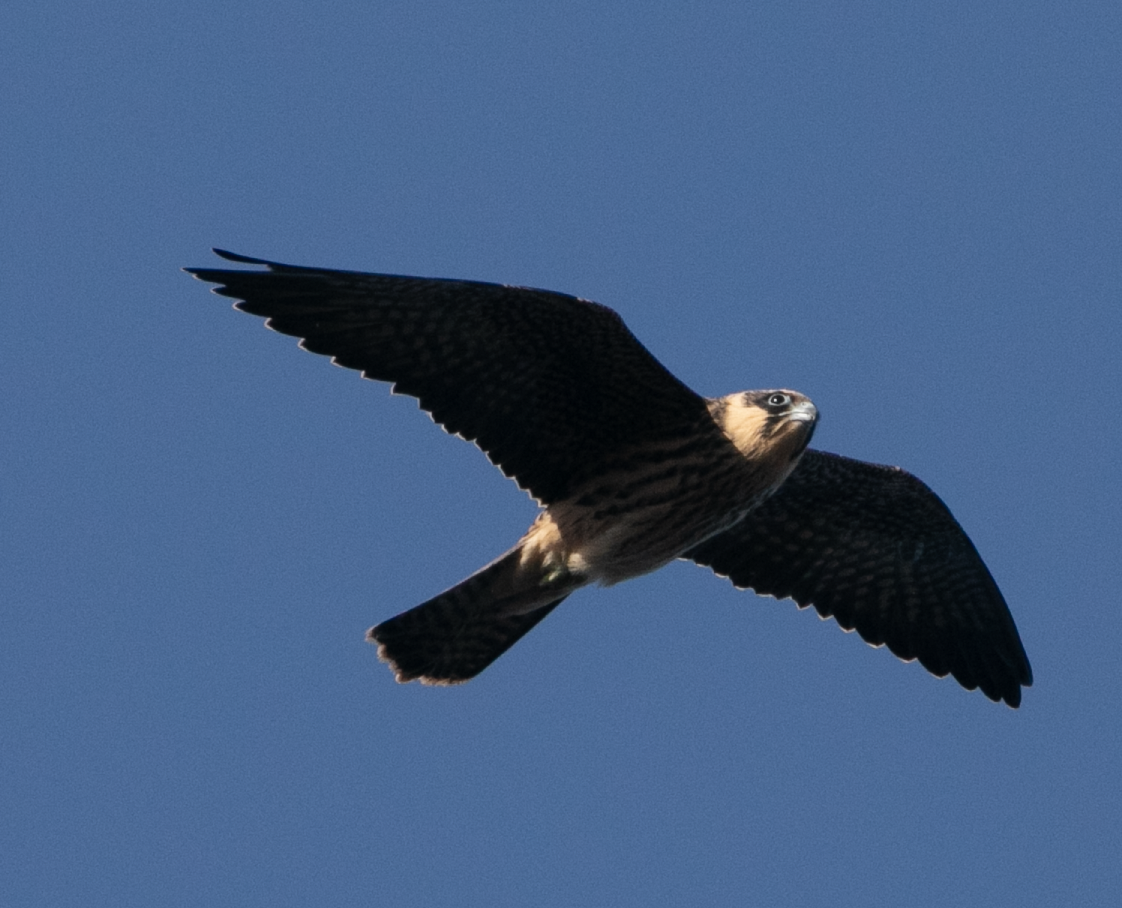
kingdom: Animalia
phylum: Chordata
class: Aves
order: Falconiformes
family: Falconidae
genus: Falco
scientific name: Falco eleonorae
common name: Eleonora's falcon
